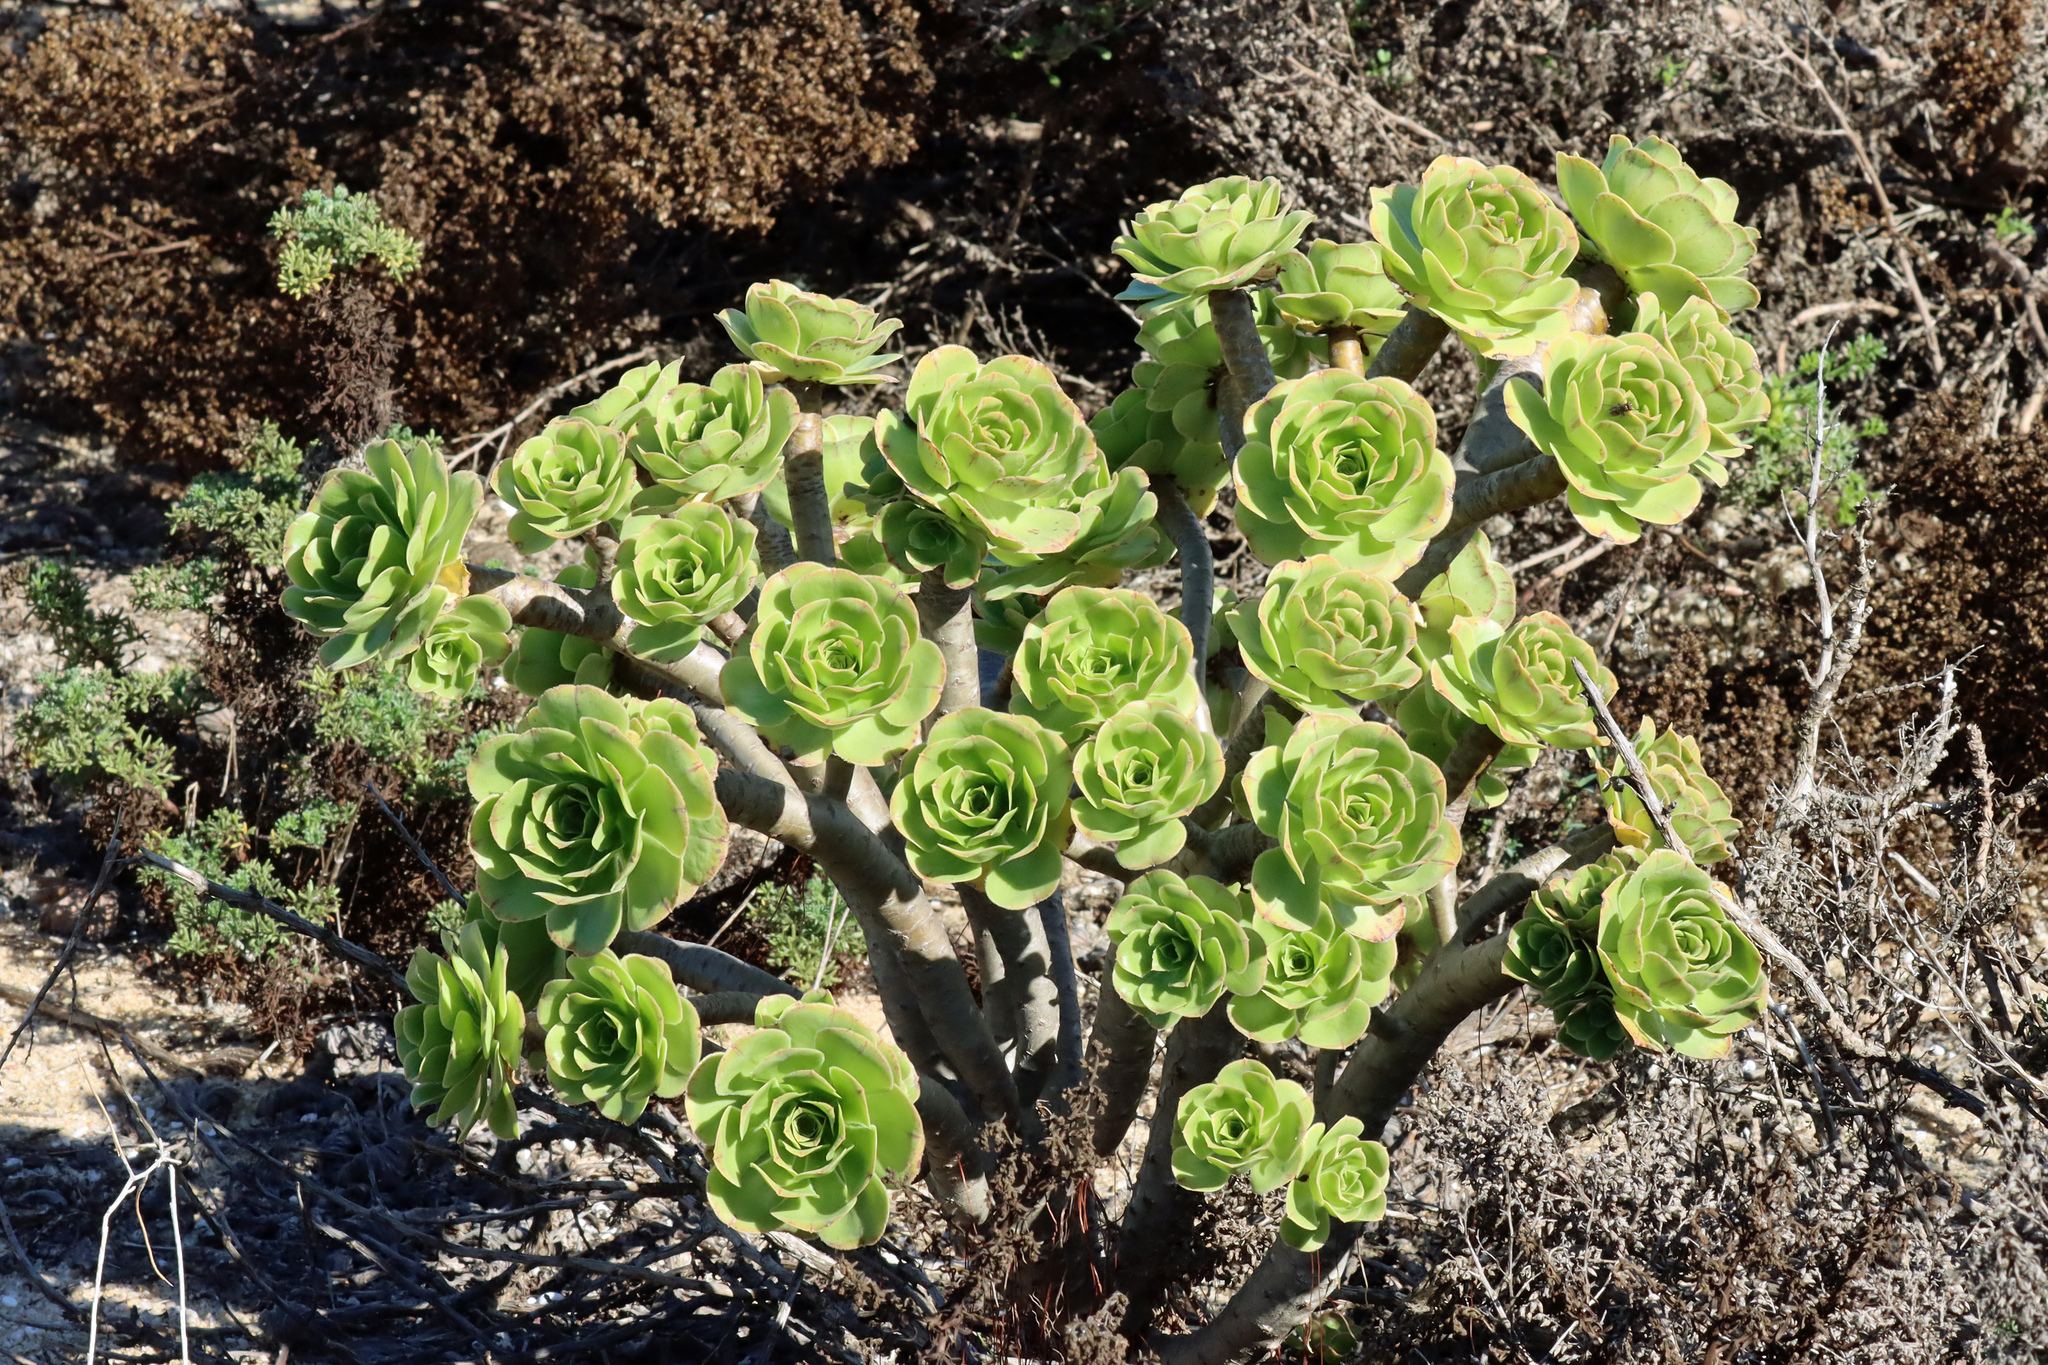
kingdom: Plantae
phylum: Tracheophyta
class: Magnoliopsida
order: Saxifragales
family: Crassulaceae
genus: Aeonium
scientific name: Aeonium arboreum
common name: Tree aeonium
